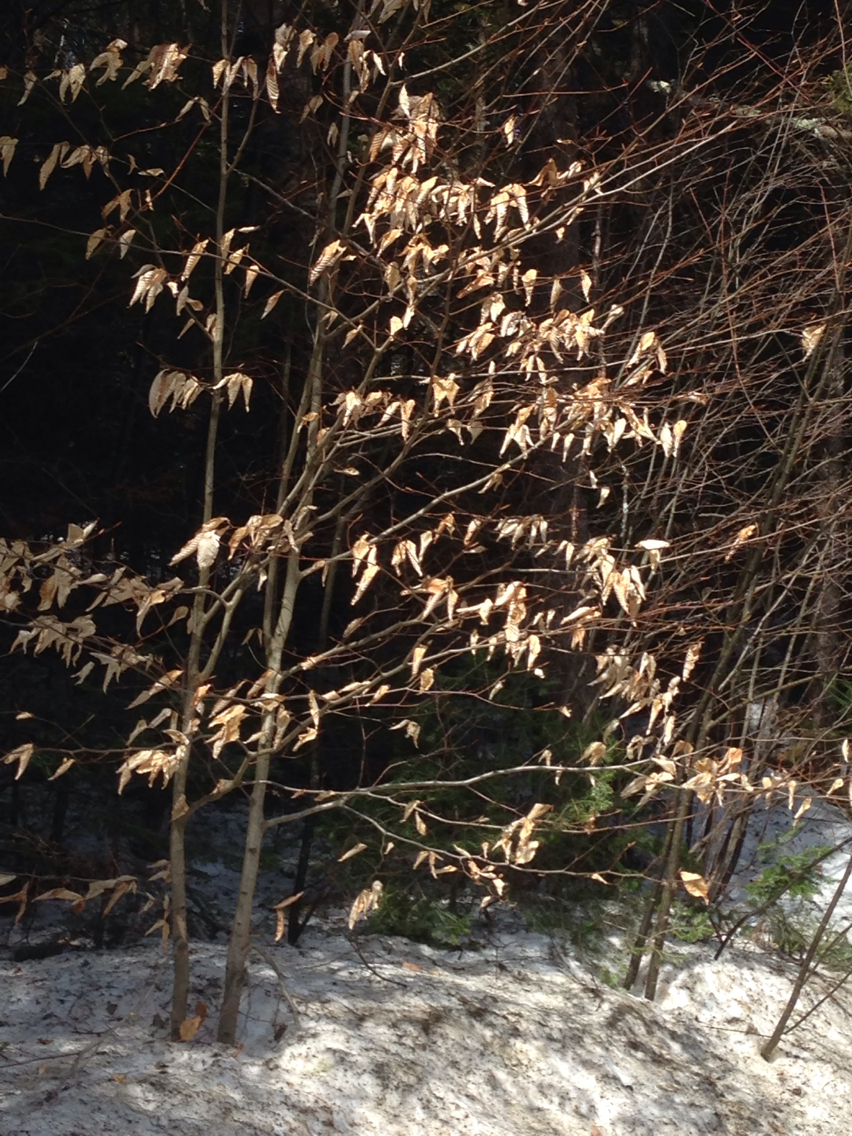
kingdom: Plantae
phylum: Tracheophyta
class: Magnoliopsida
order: Fagales
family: Fagaceae
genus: Fagus
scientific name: Fagus grandifolia
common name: American beech
